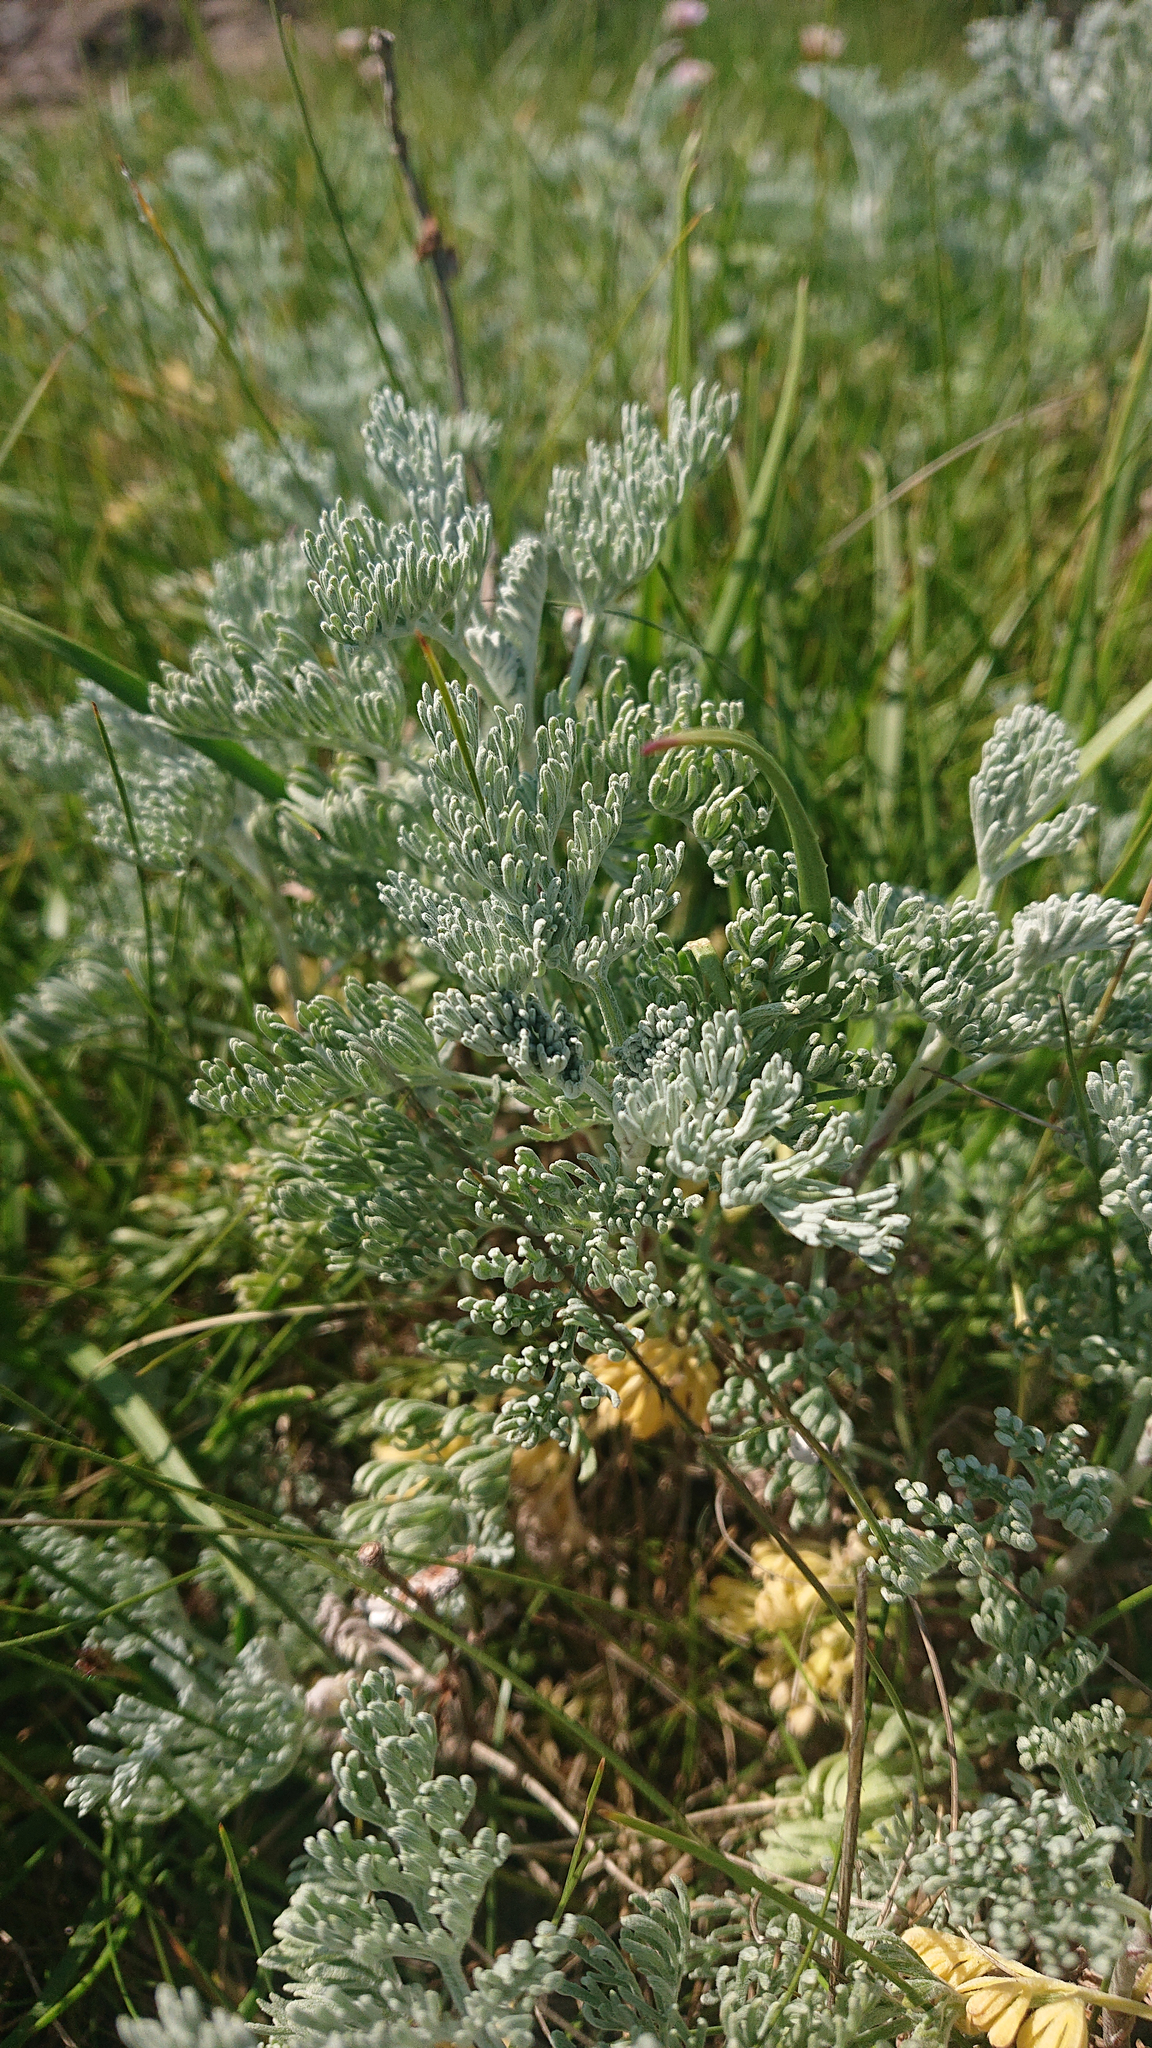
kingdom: Plantae
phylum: Tracheophyta
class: Magnoliopsida
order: Asterales
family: Asteraceae
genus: Artemisia
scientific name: Artemisia maritima
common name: Wormseed
